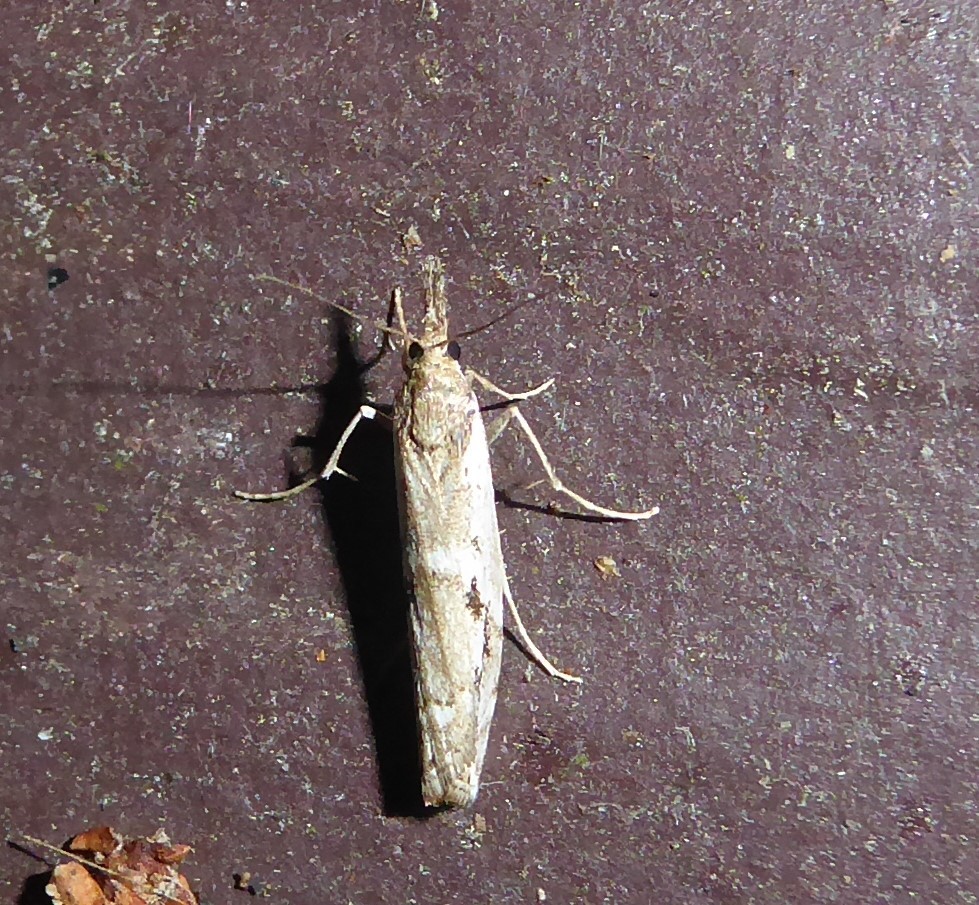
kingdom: Animalia
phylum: Arthropoda
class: Insecta
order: Lepidoptera
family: Crambidae
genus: Orocrambus
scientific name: Orocrambus vulgaris
